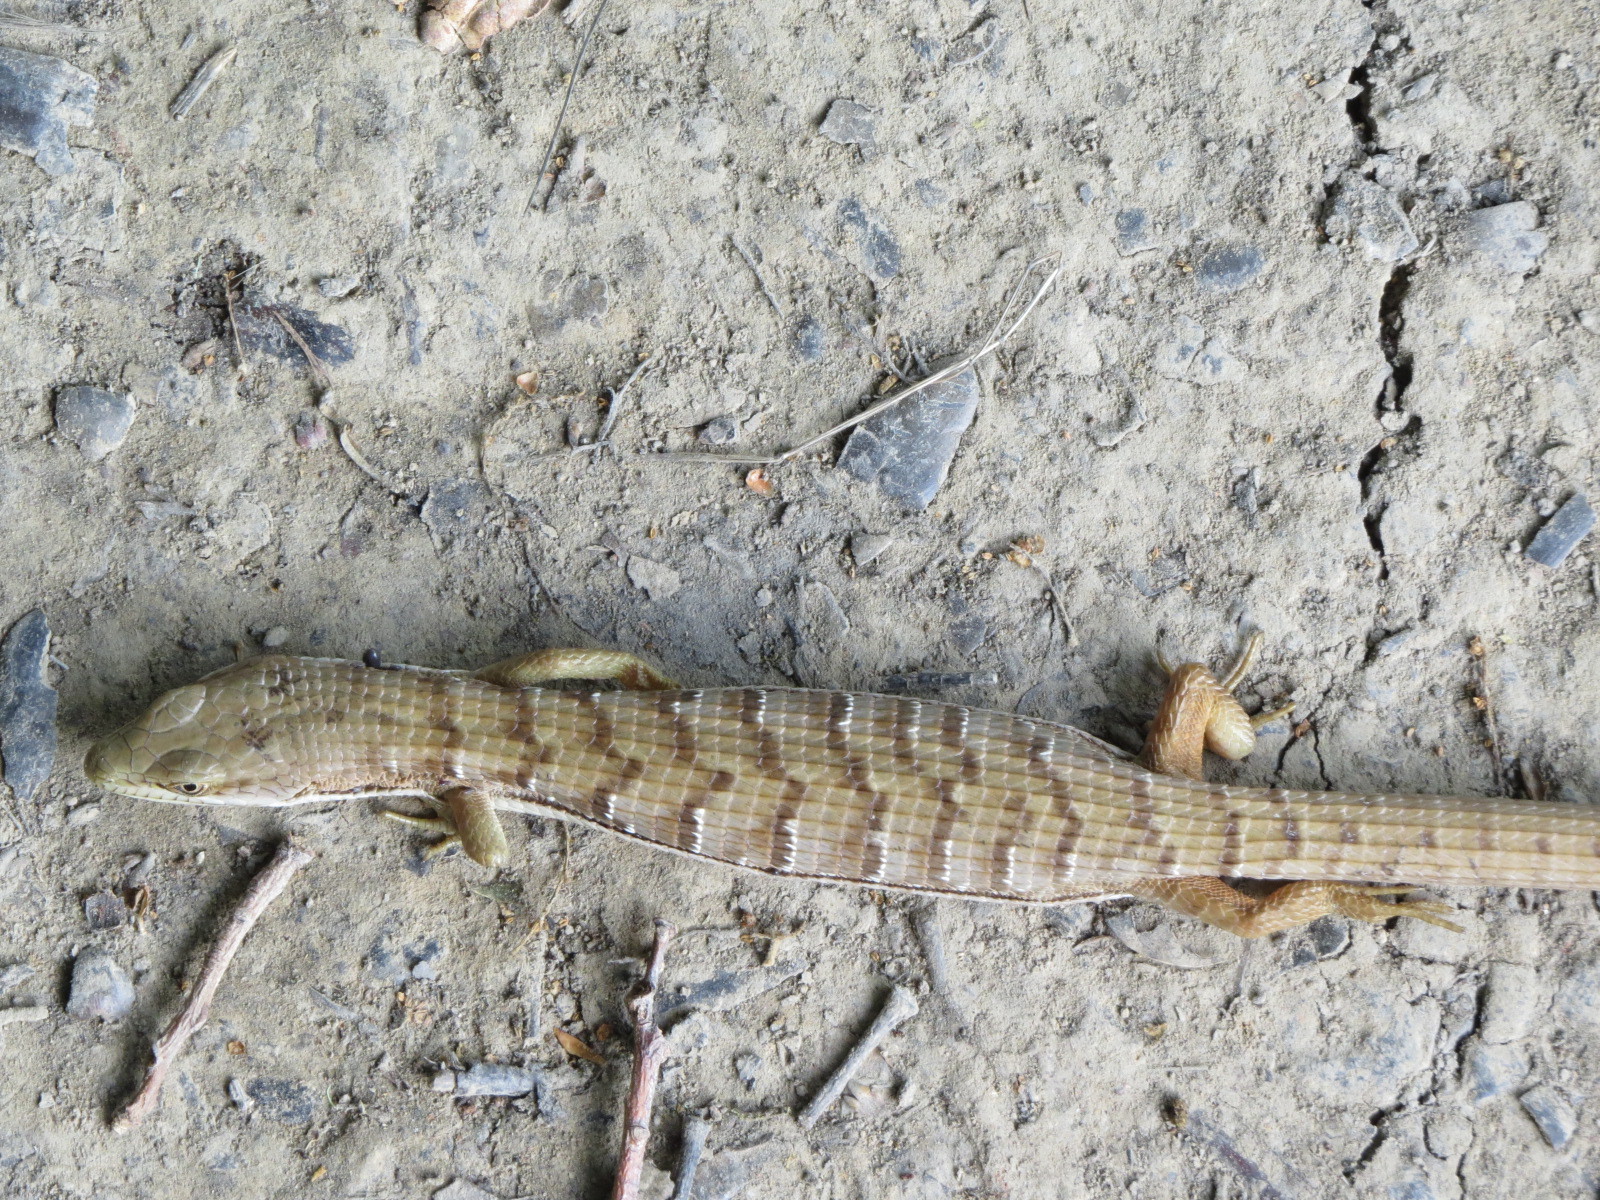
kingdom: Animalia
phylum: Chordata
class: Squamata
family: Anguidae
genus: Elgaria
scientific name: Elgaria multicarinata
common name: Southern alligator lizard
